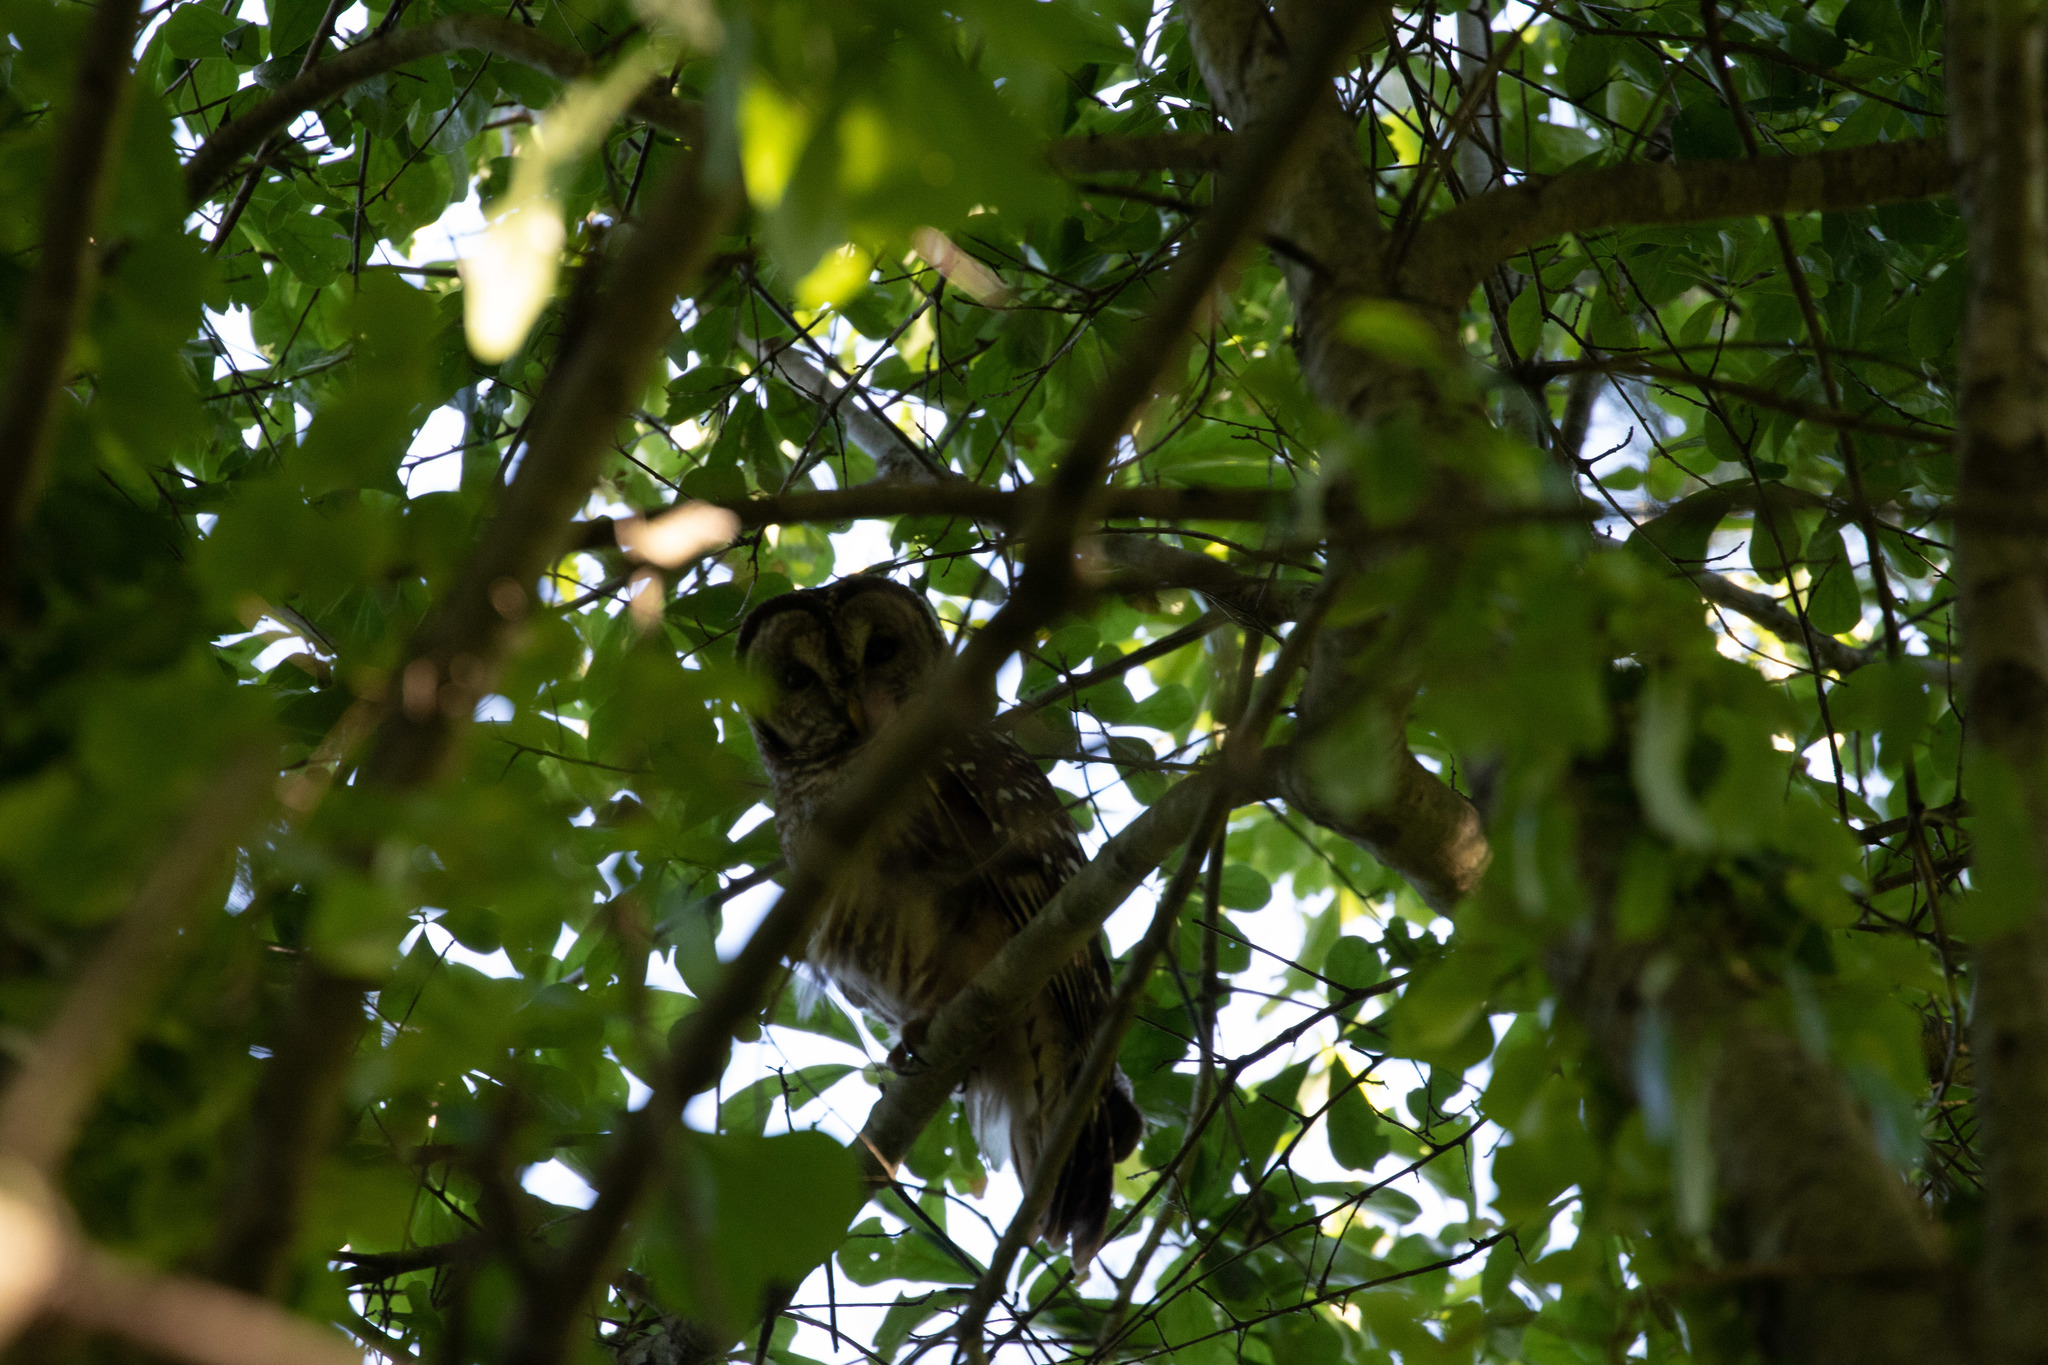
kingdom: Animalia
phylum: Chordata
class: Aves
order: Strigiformes
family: Strigidae
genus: Strix
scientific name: Strix varia
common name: Barred owl
